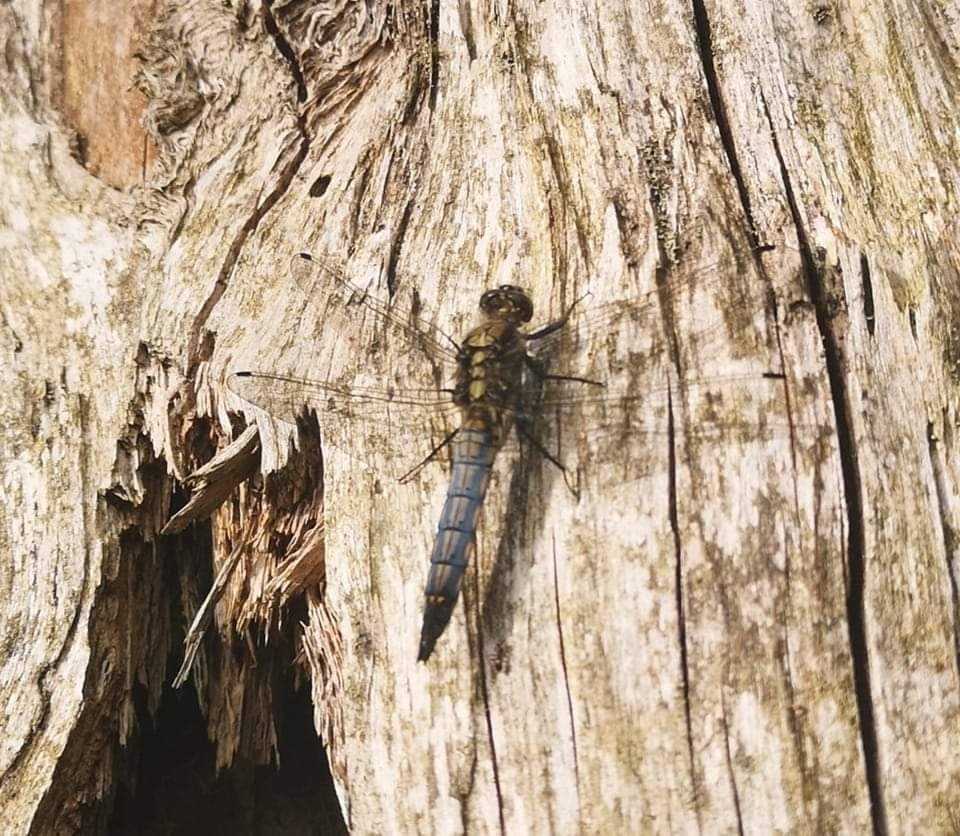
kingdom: Animalia
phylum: Arthropoda
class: Insecta
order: Odonata
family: Libellulidae
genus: Orthetrum
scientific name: Orthetrum cancellatum
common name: Black-tailed skimmer
